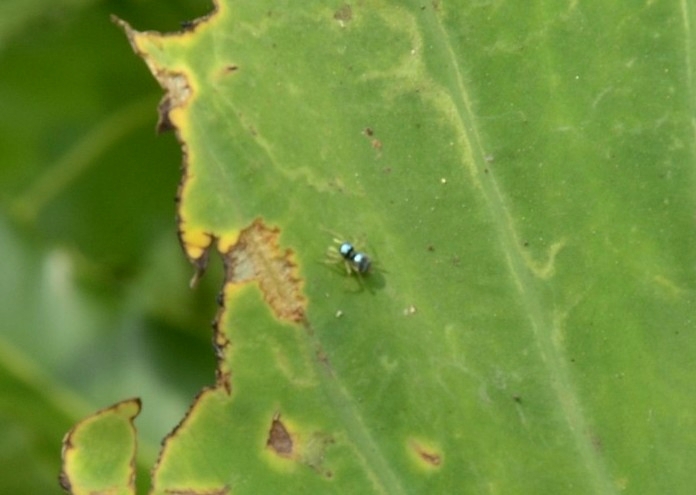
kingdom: Animalia
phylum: Arthropoda
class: Arachnida
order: Araneae
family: Salticidae
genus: Phintella
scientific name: Phintella vittata
